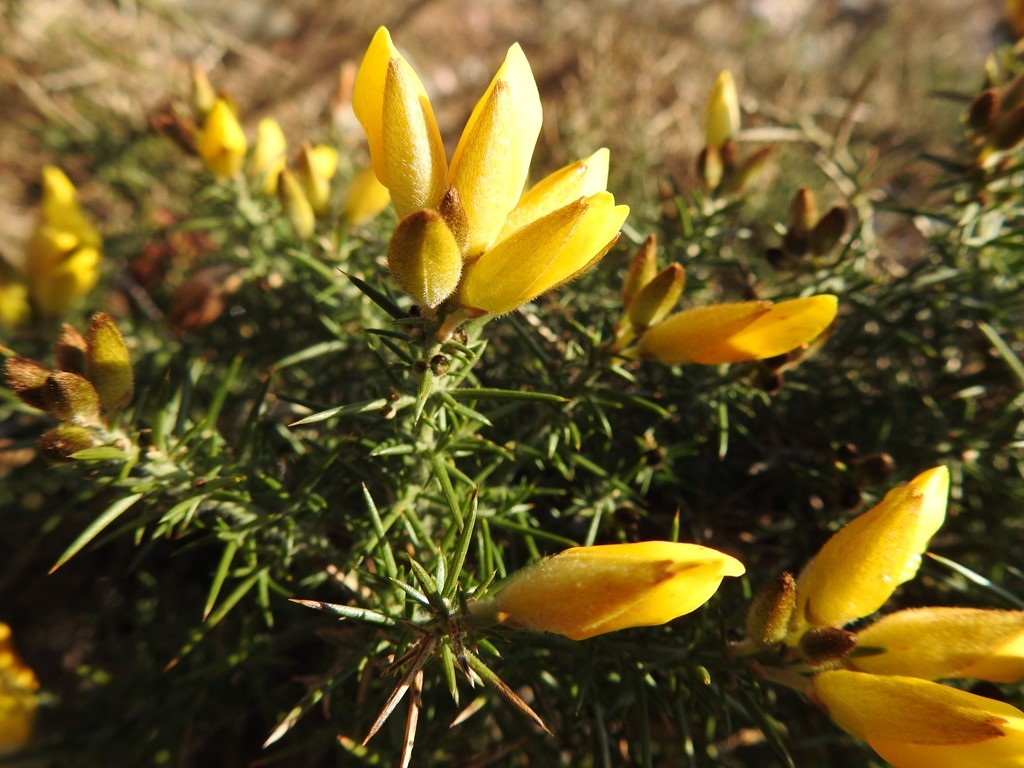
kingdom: Plantae
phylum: Tracheophyta
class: Magnoliopsida
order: Fabales
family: Fabaceae
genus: Ulex
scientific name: Ulex europaeus
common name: Common gorse
